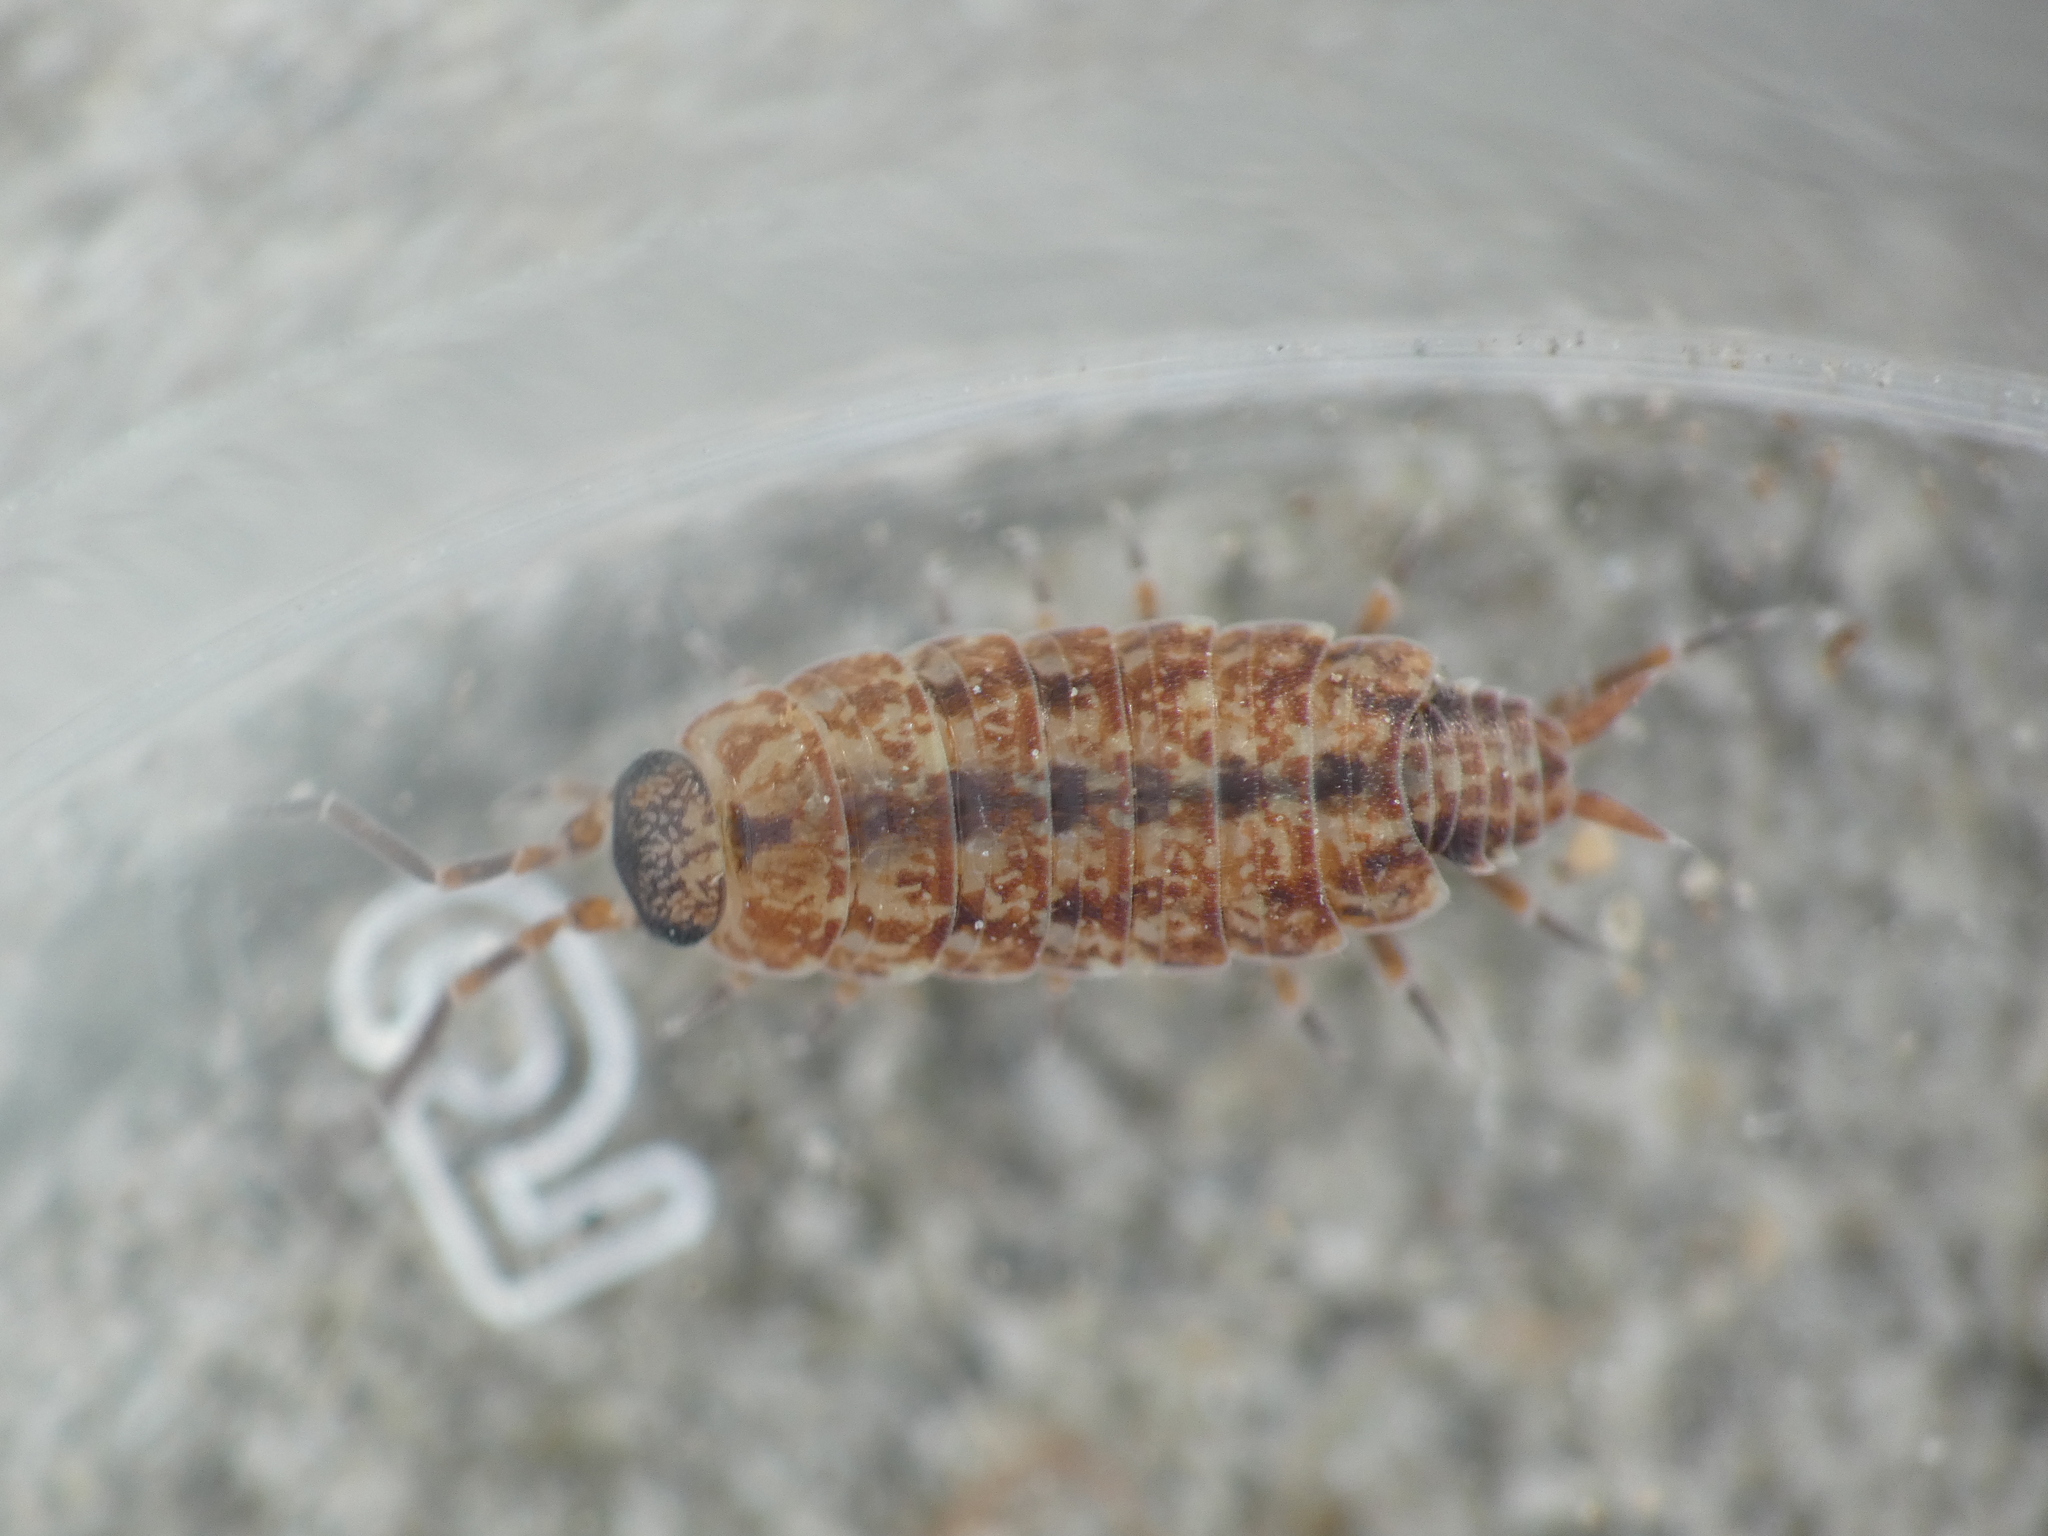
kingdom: Animalia
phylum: Arthropoda
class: Malacostraca
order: Isopoda
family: Porcellionidae
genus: Porcellionides
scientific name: Porcellionides cingendus
